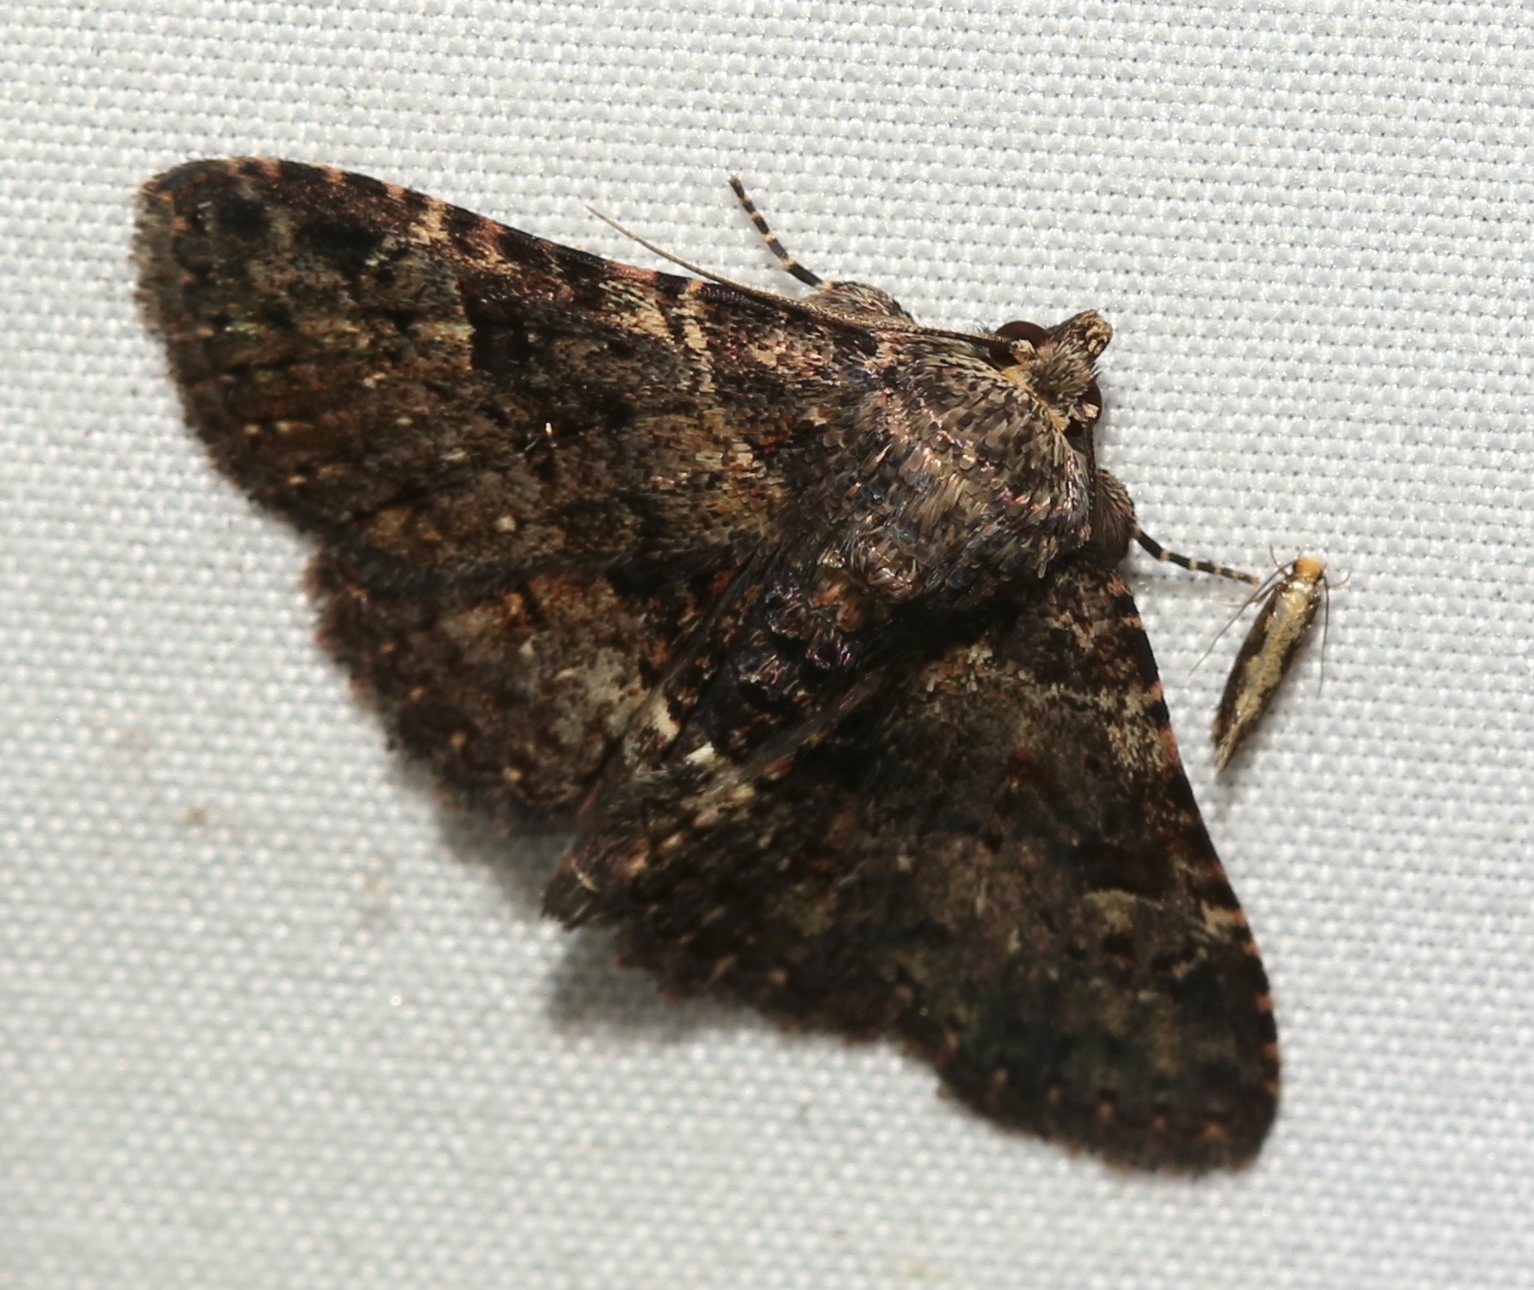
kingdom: Animalia
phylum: Arthropoda
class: Insecta
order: Lepidoptera
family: Erebidae
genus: Metalectra
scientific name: Metalectra discalis
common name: Common fungus moth
